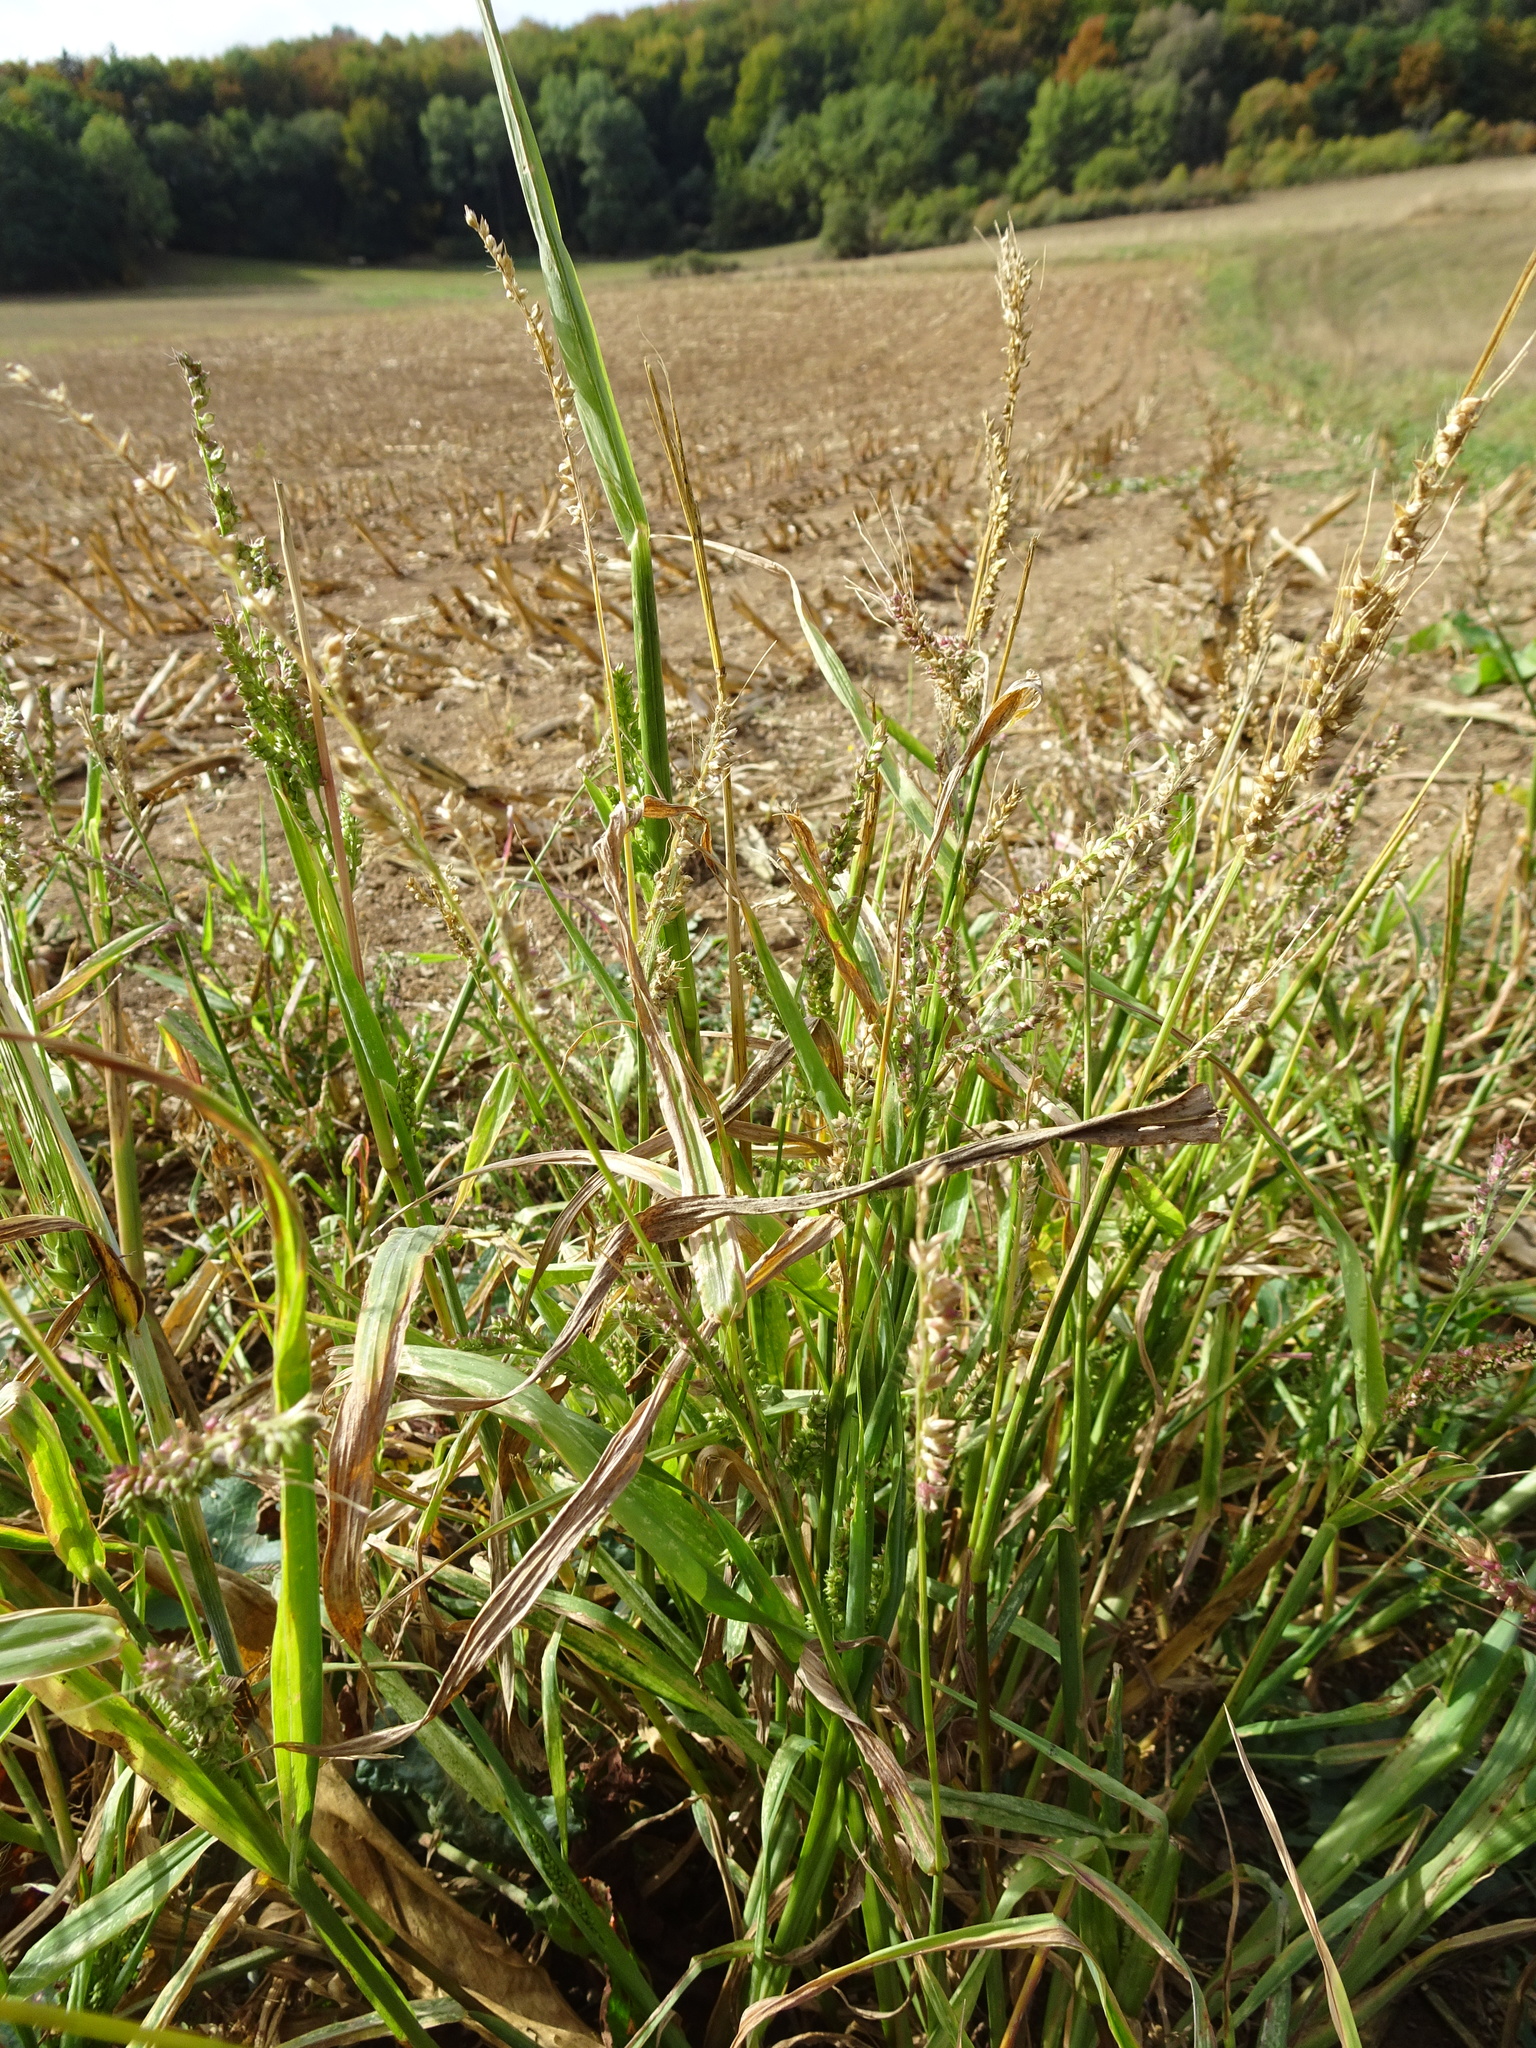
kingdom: Plantae
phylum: Tracheophyta
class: Liliopsida
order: Poales
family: Poaceae
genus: Echinochloa
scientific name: Echinochloa crus-galli
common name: Cockspur
